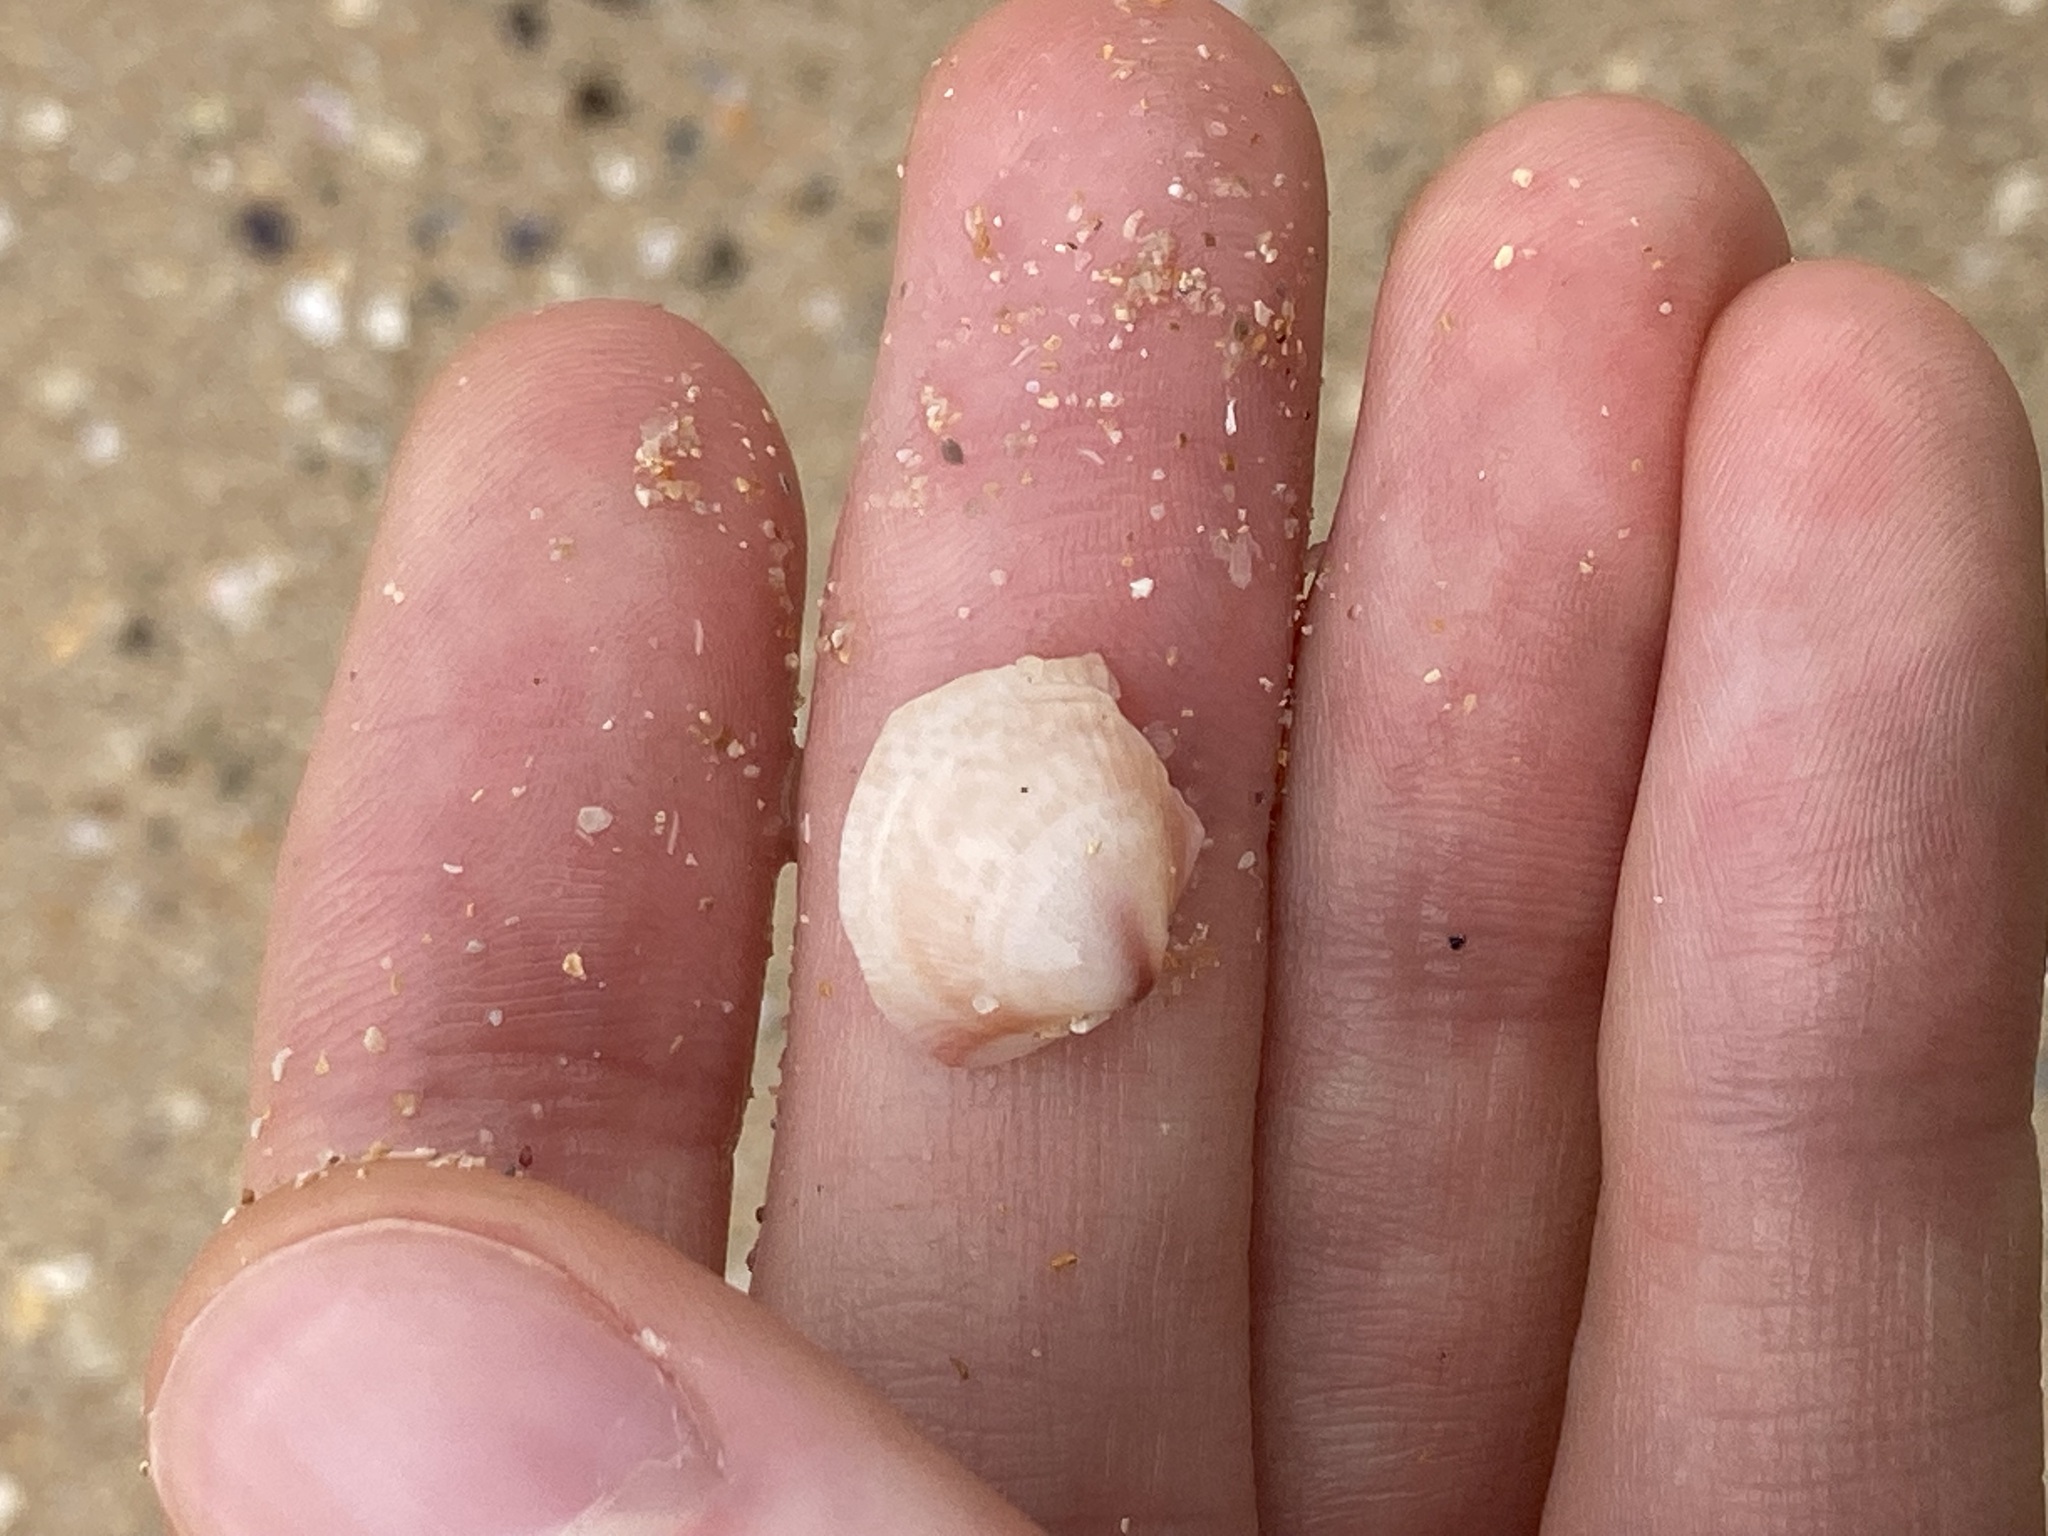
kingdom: Animalia
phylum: Mollusca
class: Bivalvia
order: Cardiida
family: Cardiidae
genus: Fulvia
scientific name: Fulvia tenuicostata
